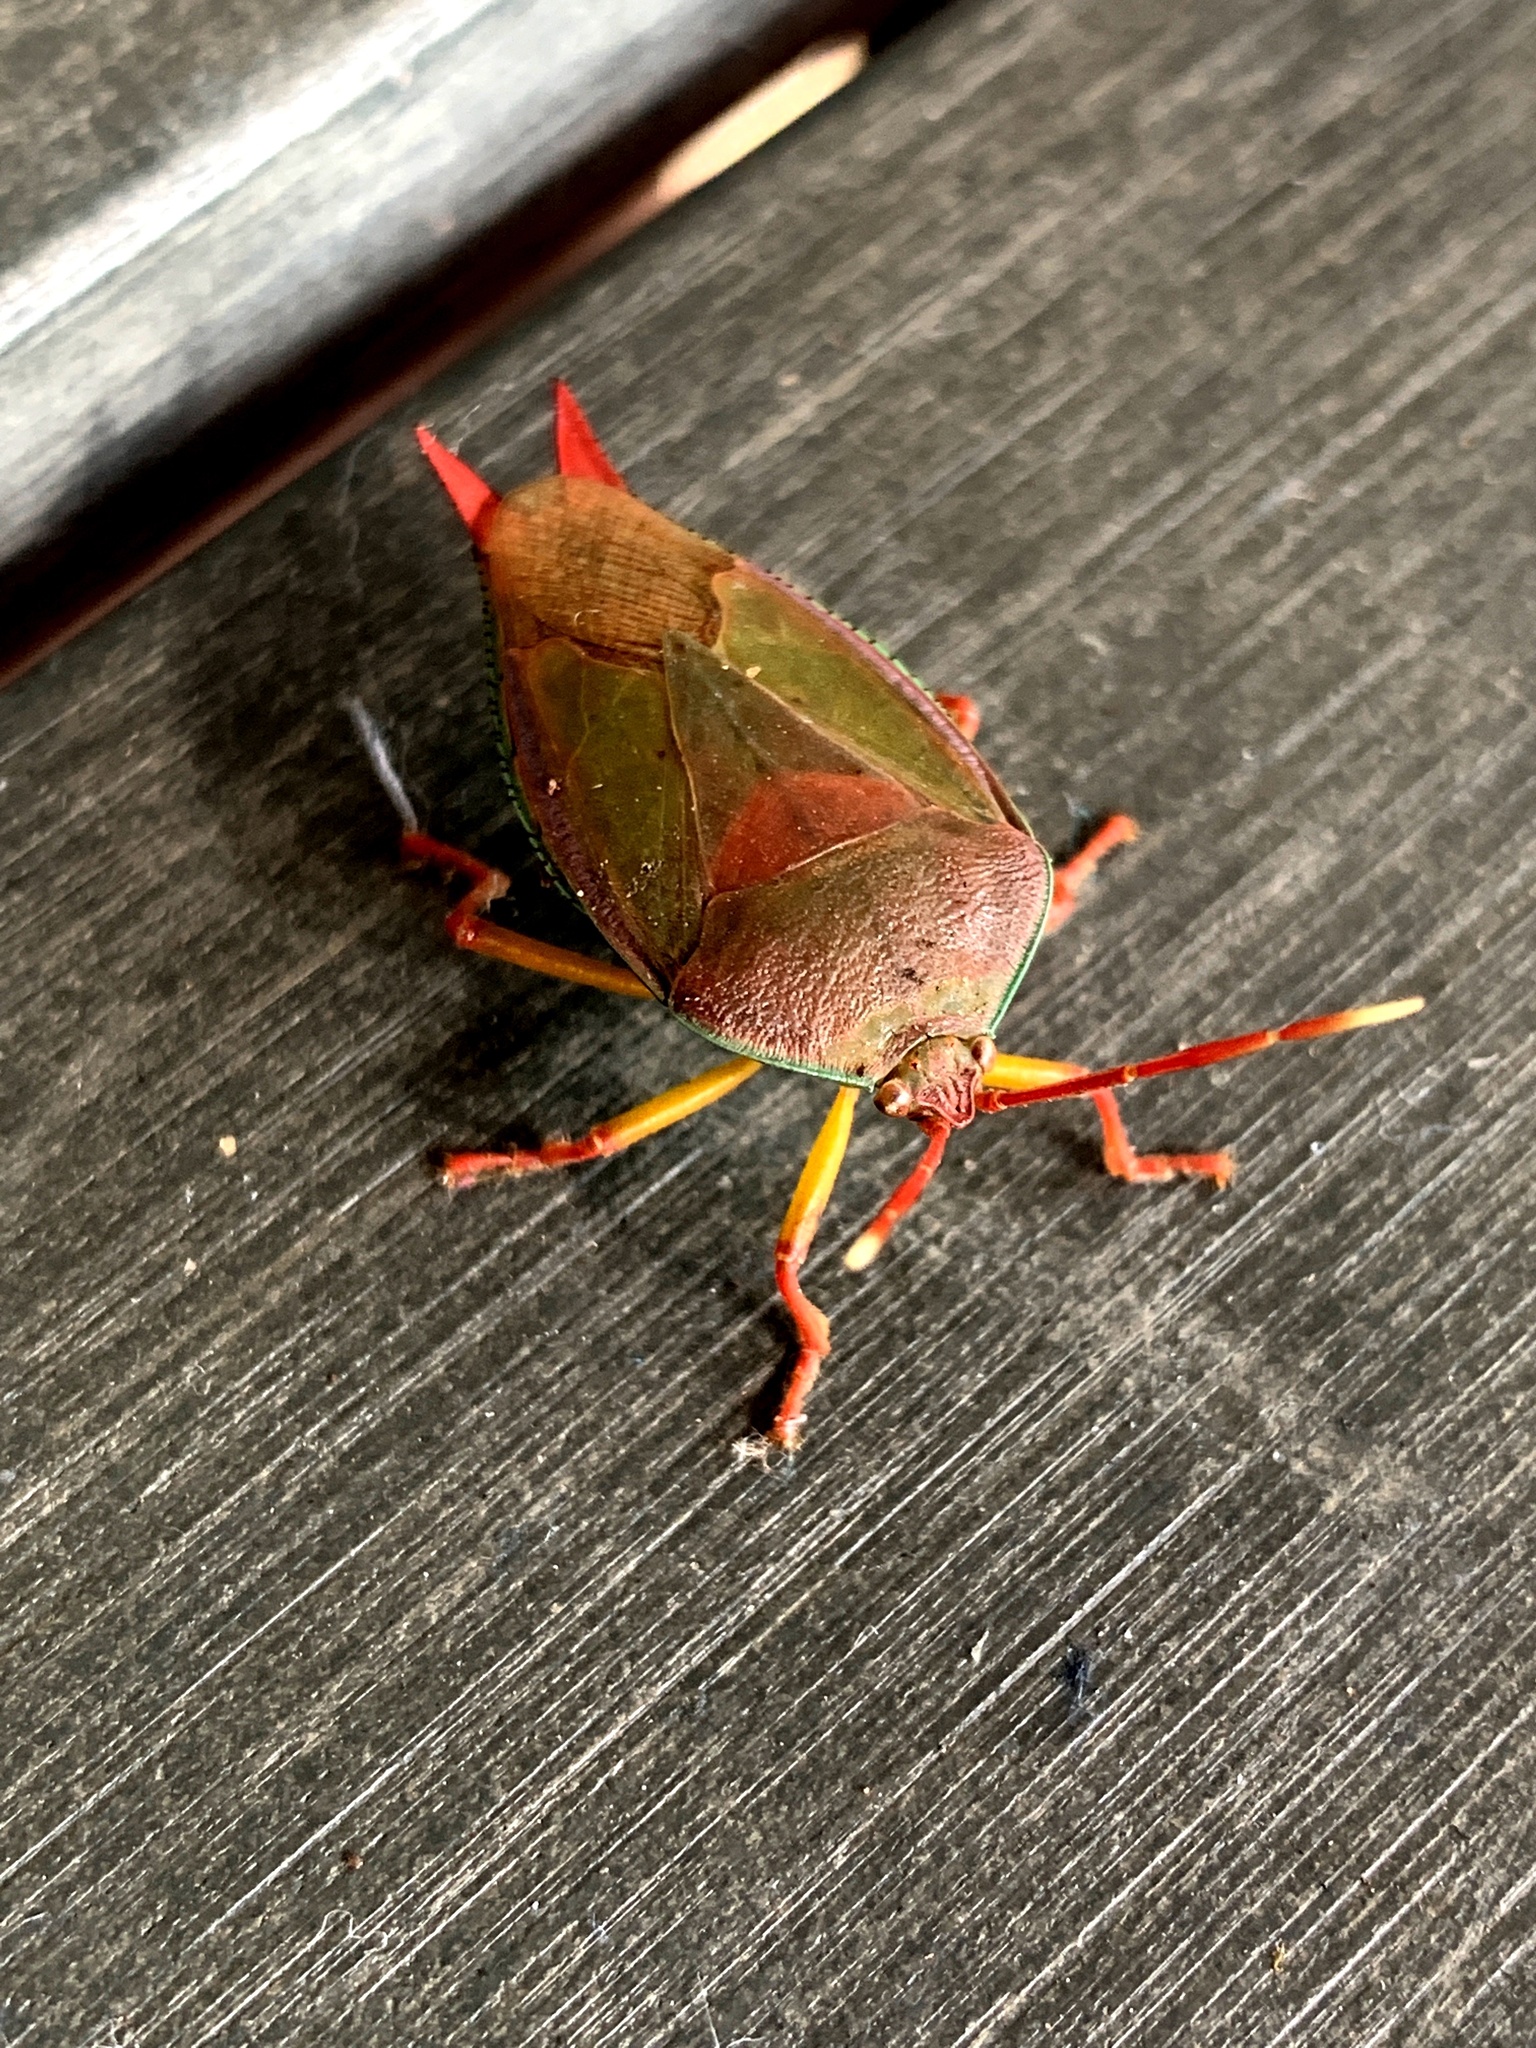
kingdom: Animalia
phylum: Arthropoda
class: Insecta
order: Hemiptera
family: Tessaratomidae
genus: Lyramorpha
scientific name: Lyramorpha rosea
